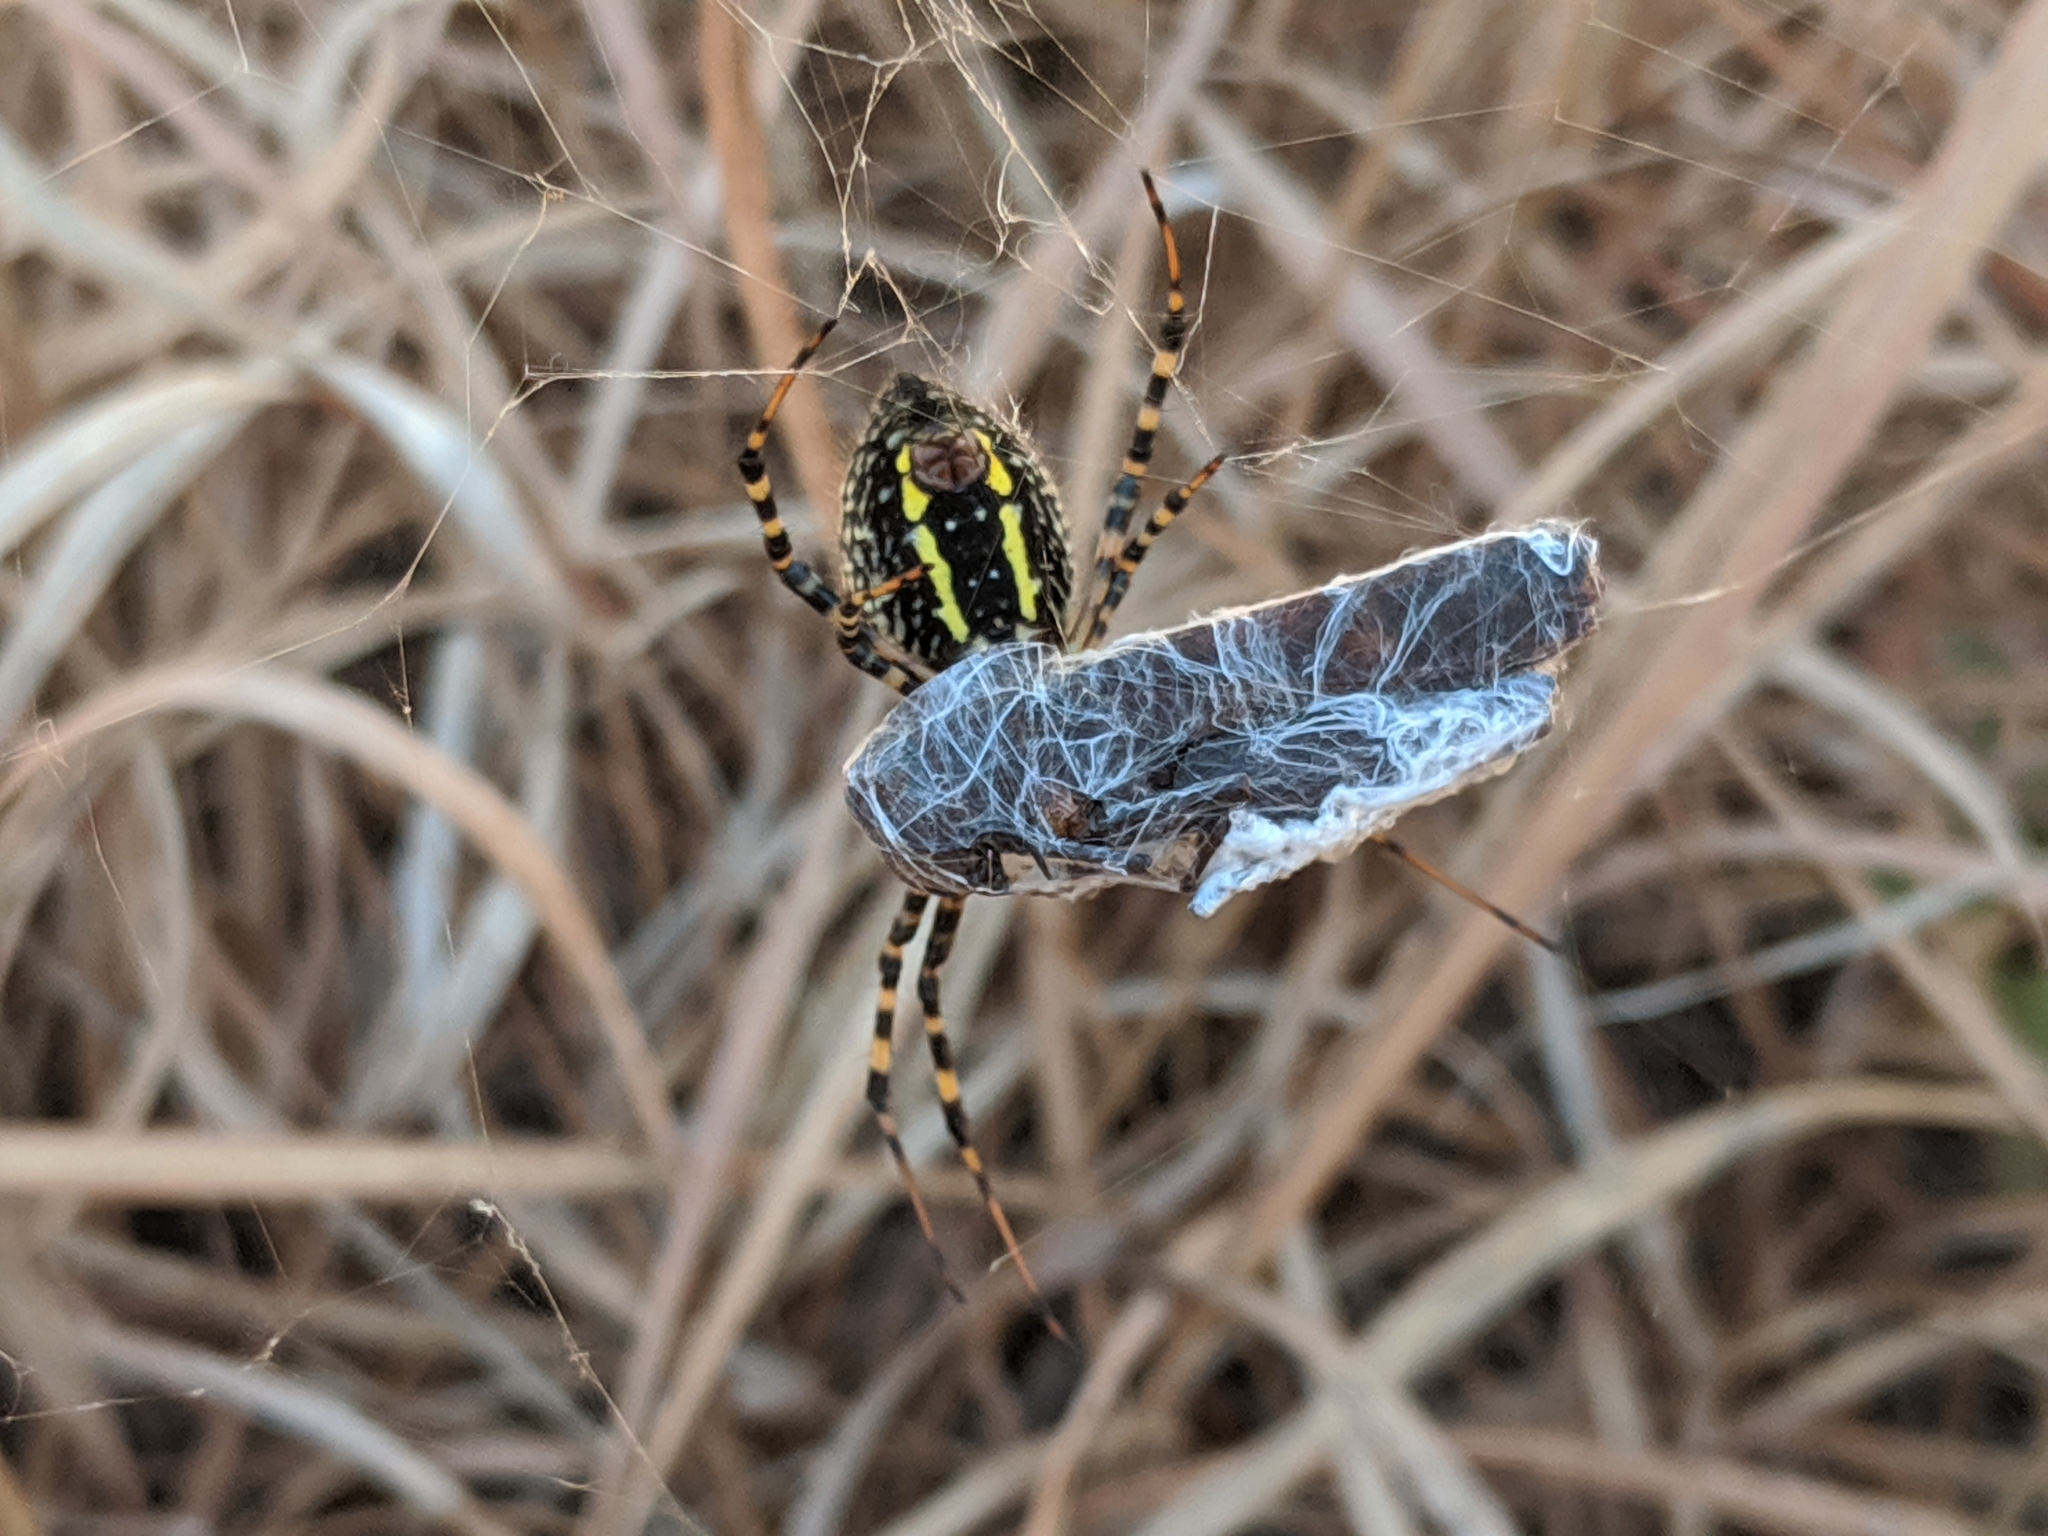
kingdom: Animalia
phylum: Arthropoda
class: Arachnida
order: Araneae
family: Araneidae
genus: Argiope
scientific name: Argiope trifasciata
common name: Banded garden spider
